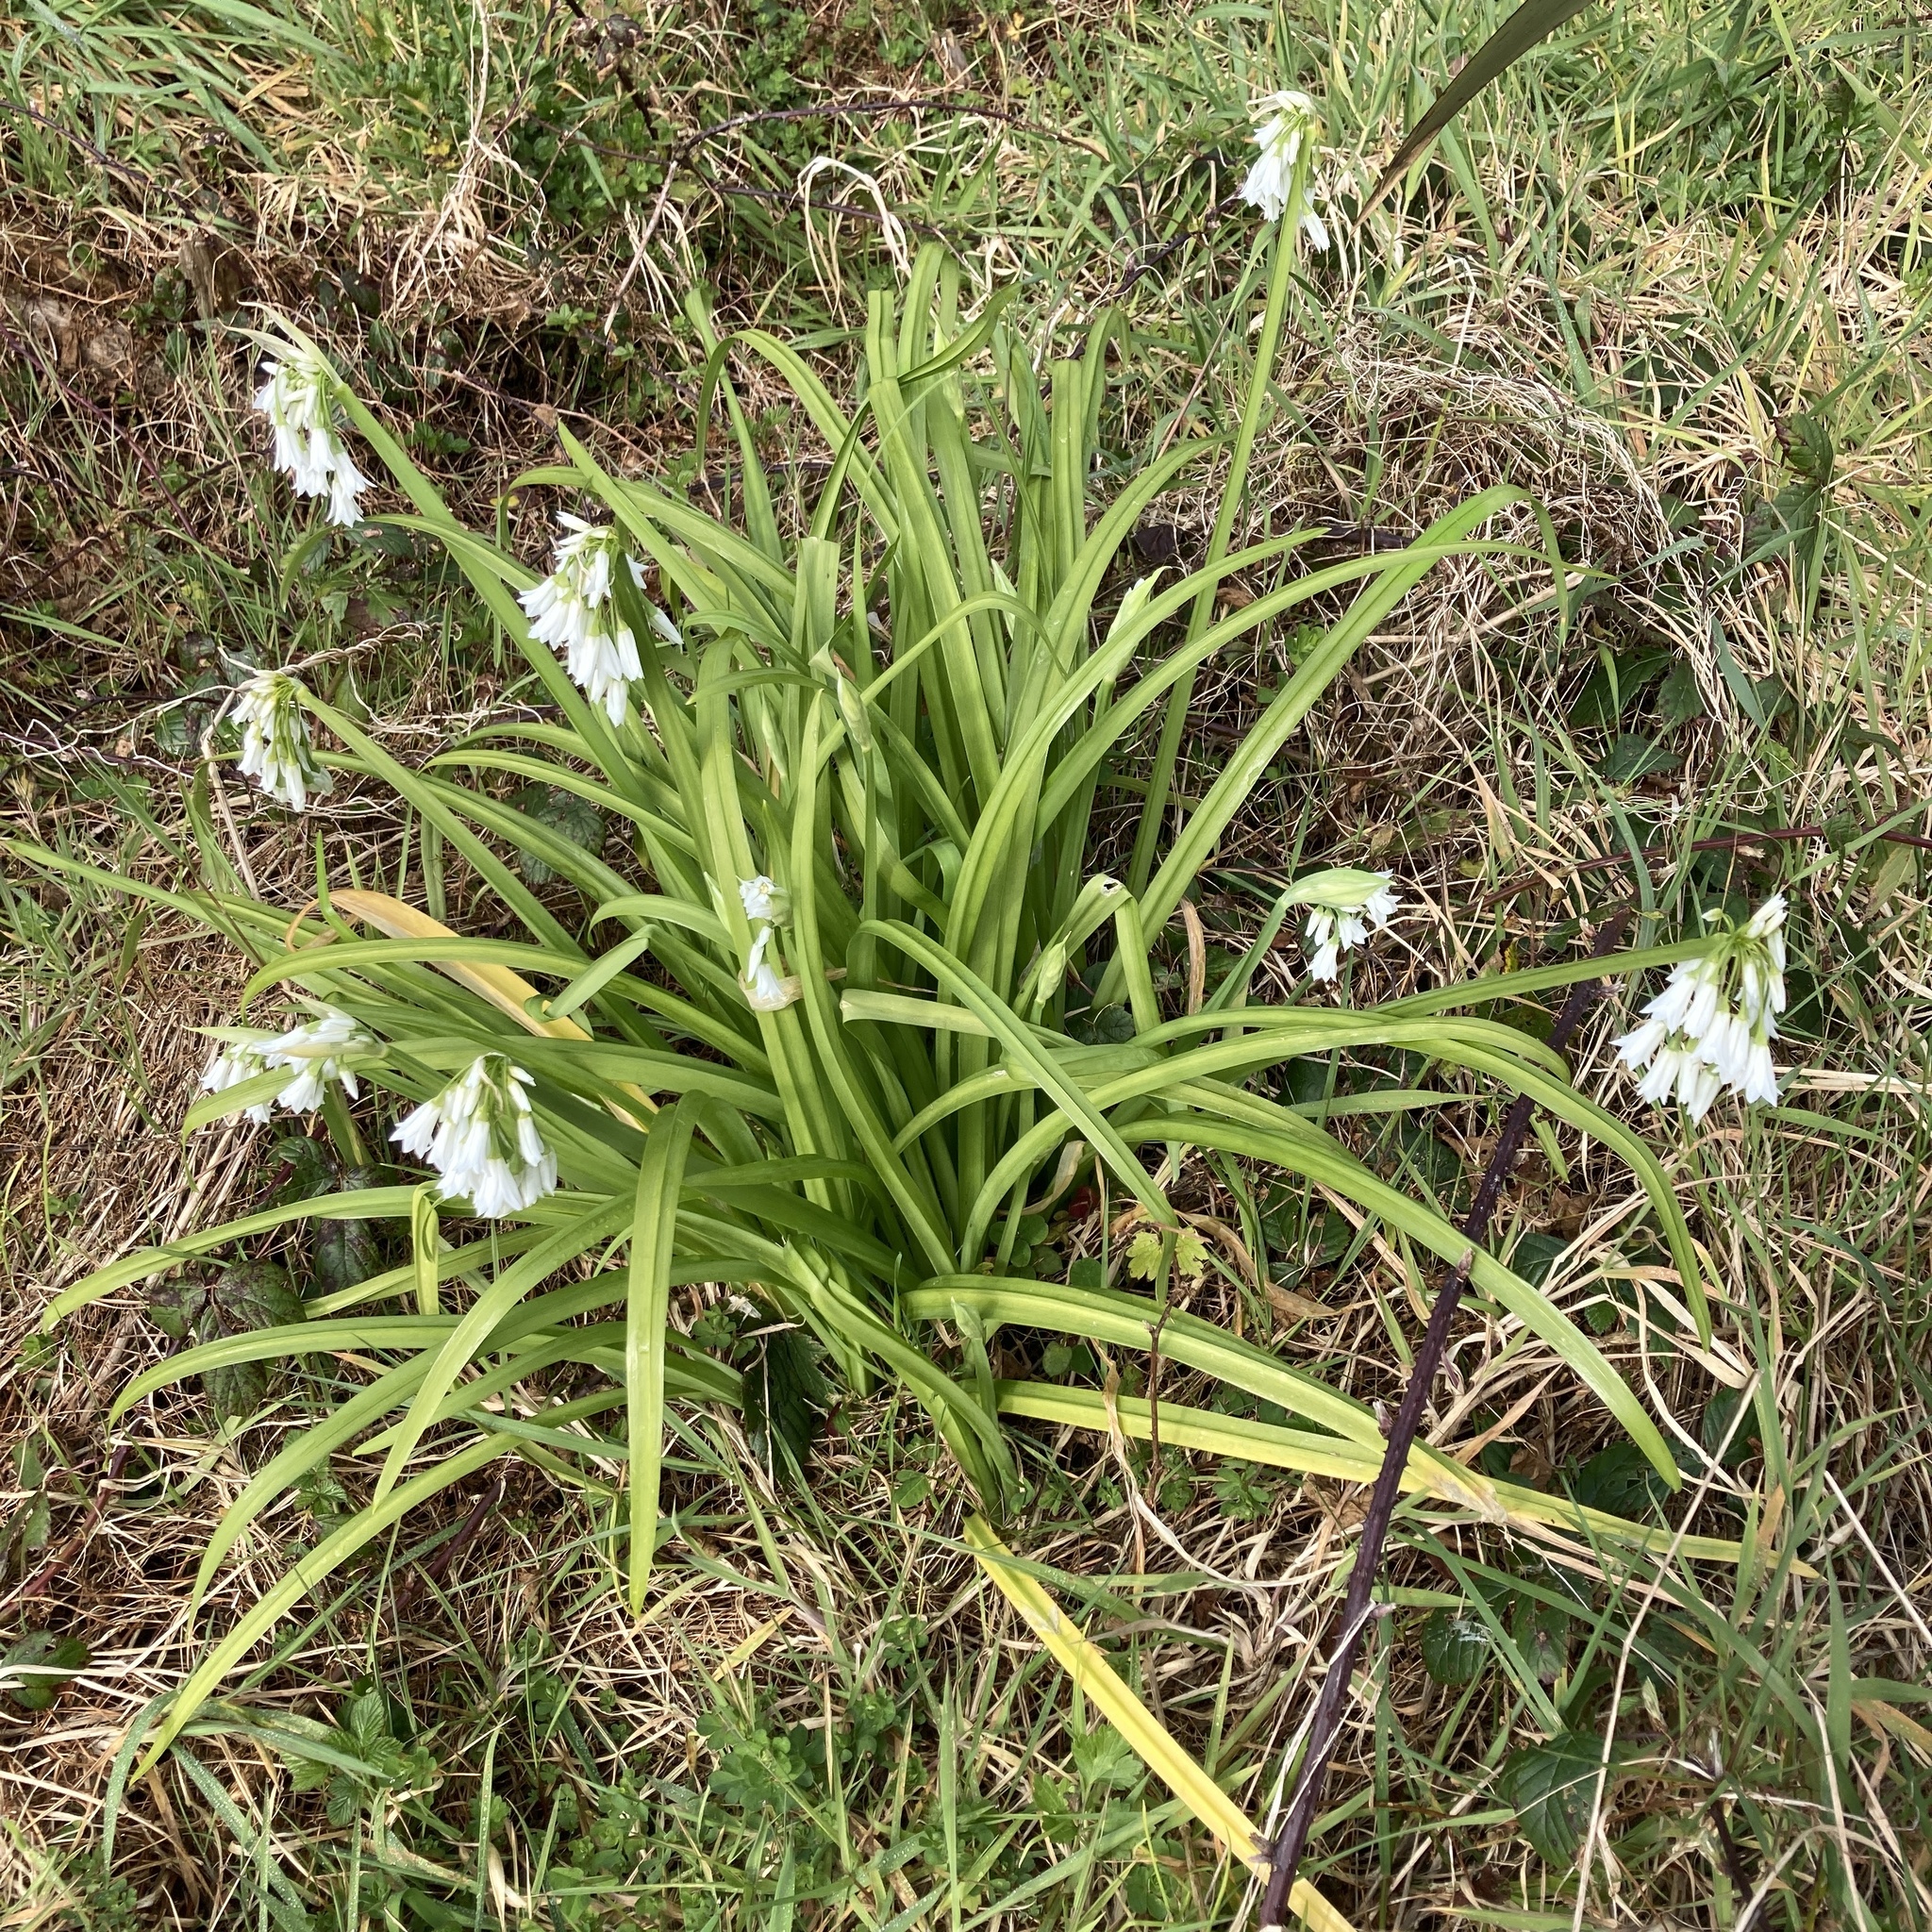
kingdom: Plantae
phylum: Tracheophyta
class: Liliopsida
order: Asparagales
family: Amaryllidaceae
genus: Allium
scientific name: Allium triquetrum
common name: Three-cornered garlic
